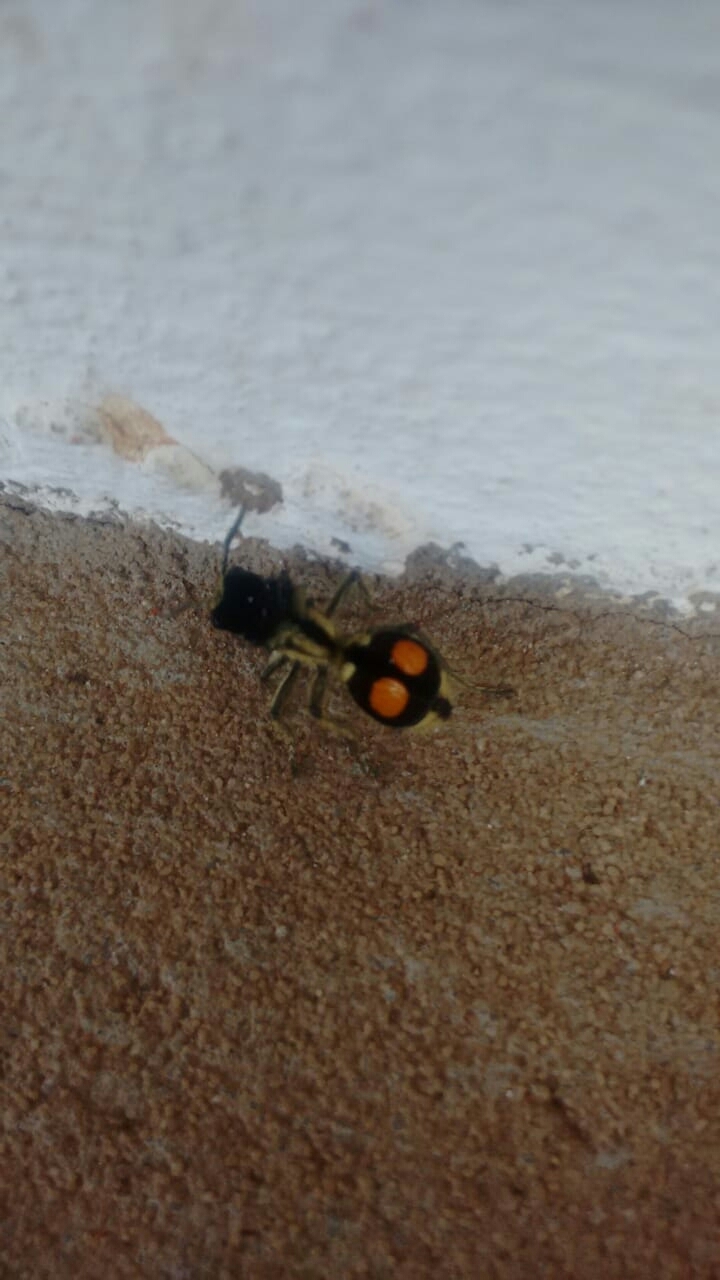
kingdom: Animalia
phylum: Arthropoda
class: Insecta
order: Hymenoptera
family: Mutillidae
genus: Hoplomutilla
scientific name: Hoplomutilla
